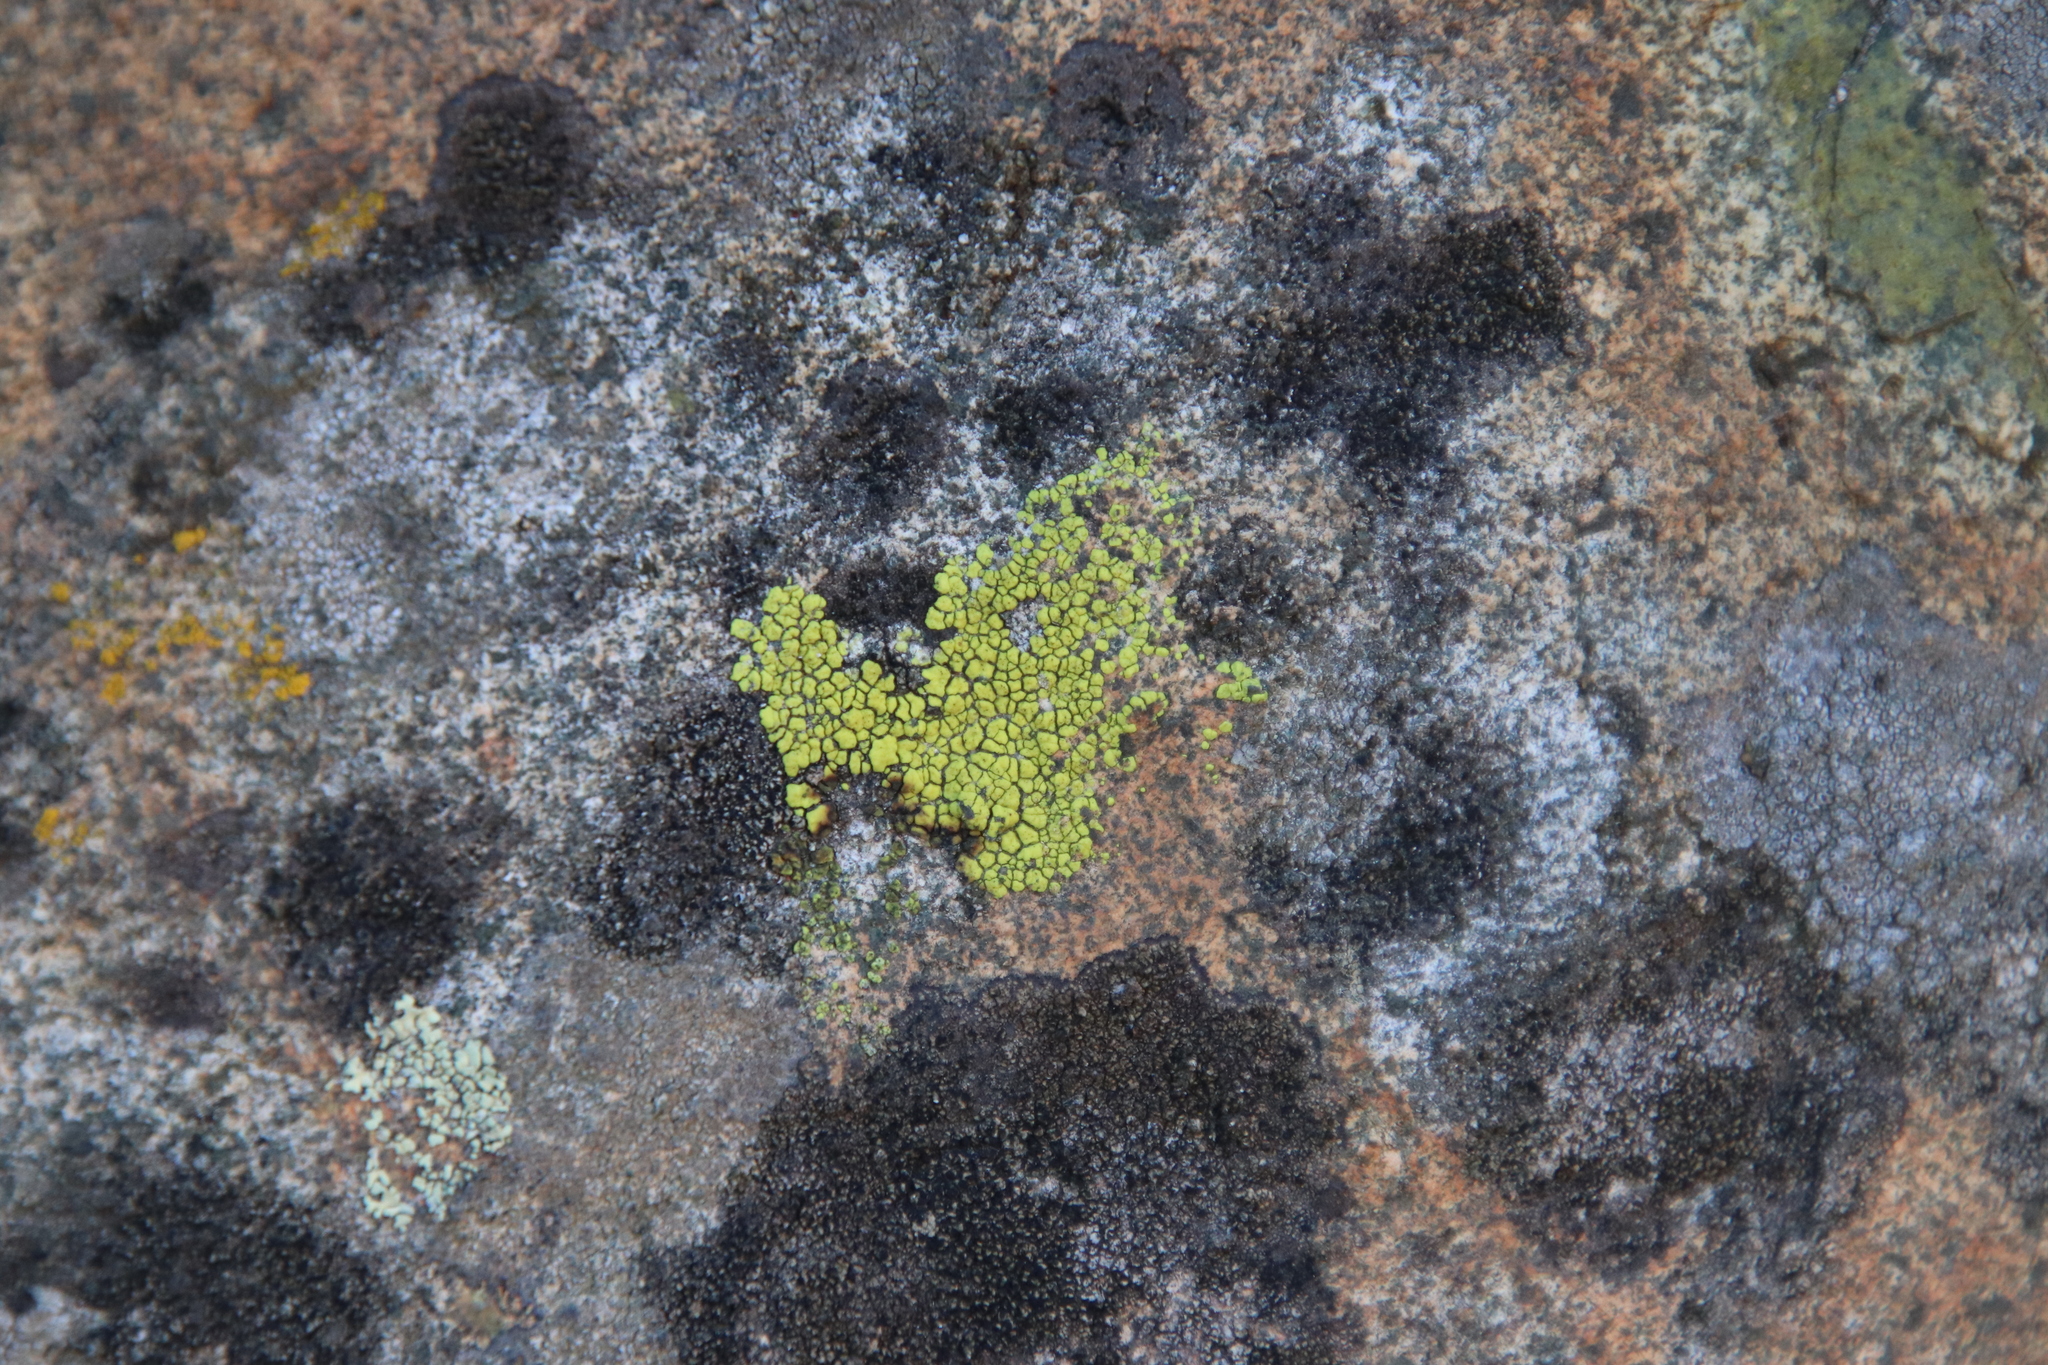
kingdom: Fungi
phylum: Ascomycota
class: Lecanoromycetes
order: Acarosporales
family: Acarosporaceae
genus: Acarospora
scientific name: Acarospora socialis
